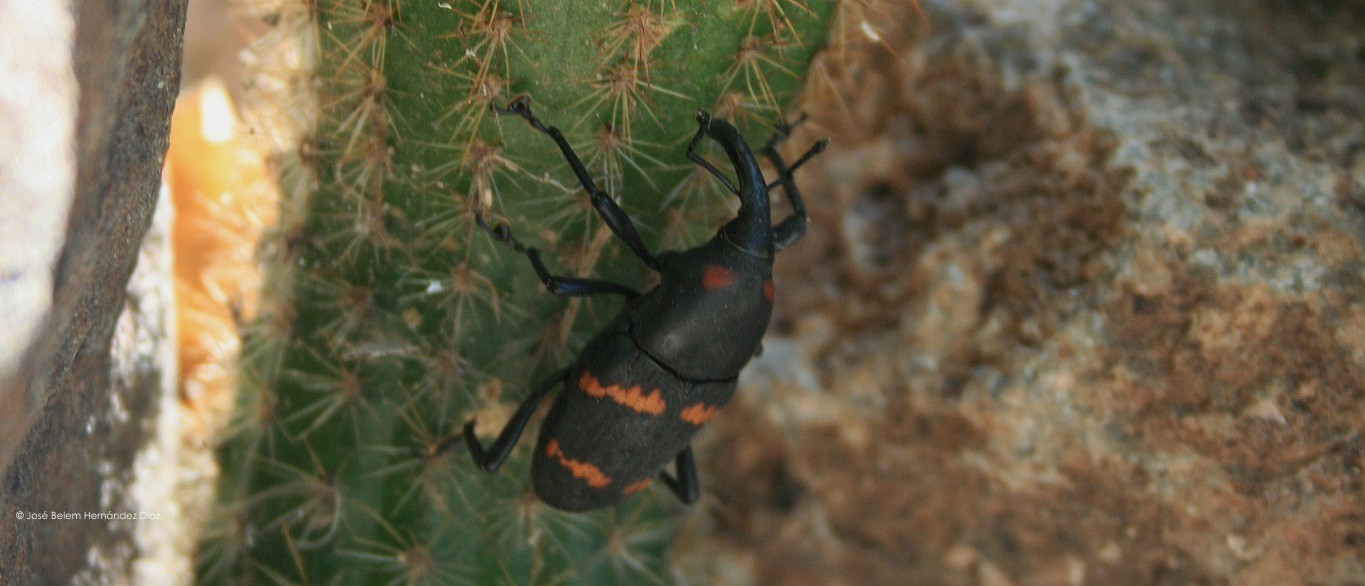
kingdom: Animalia
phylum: Arthropoda
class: Insecta
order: Coleoptera
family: Dryophthoridae
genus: Cactophagus
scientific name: Cactophagus spinolae
